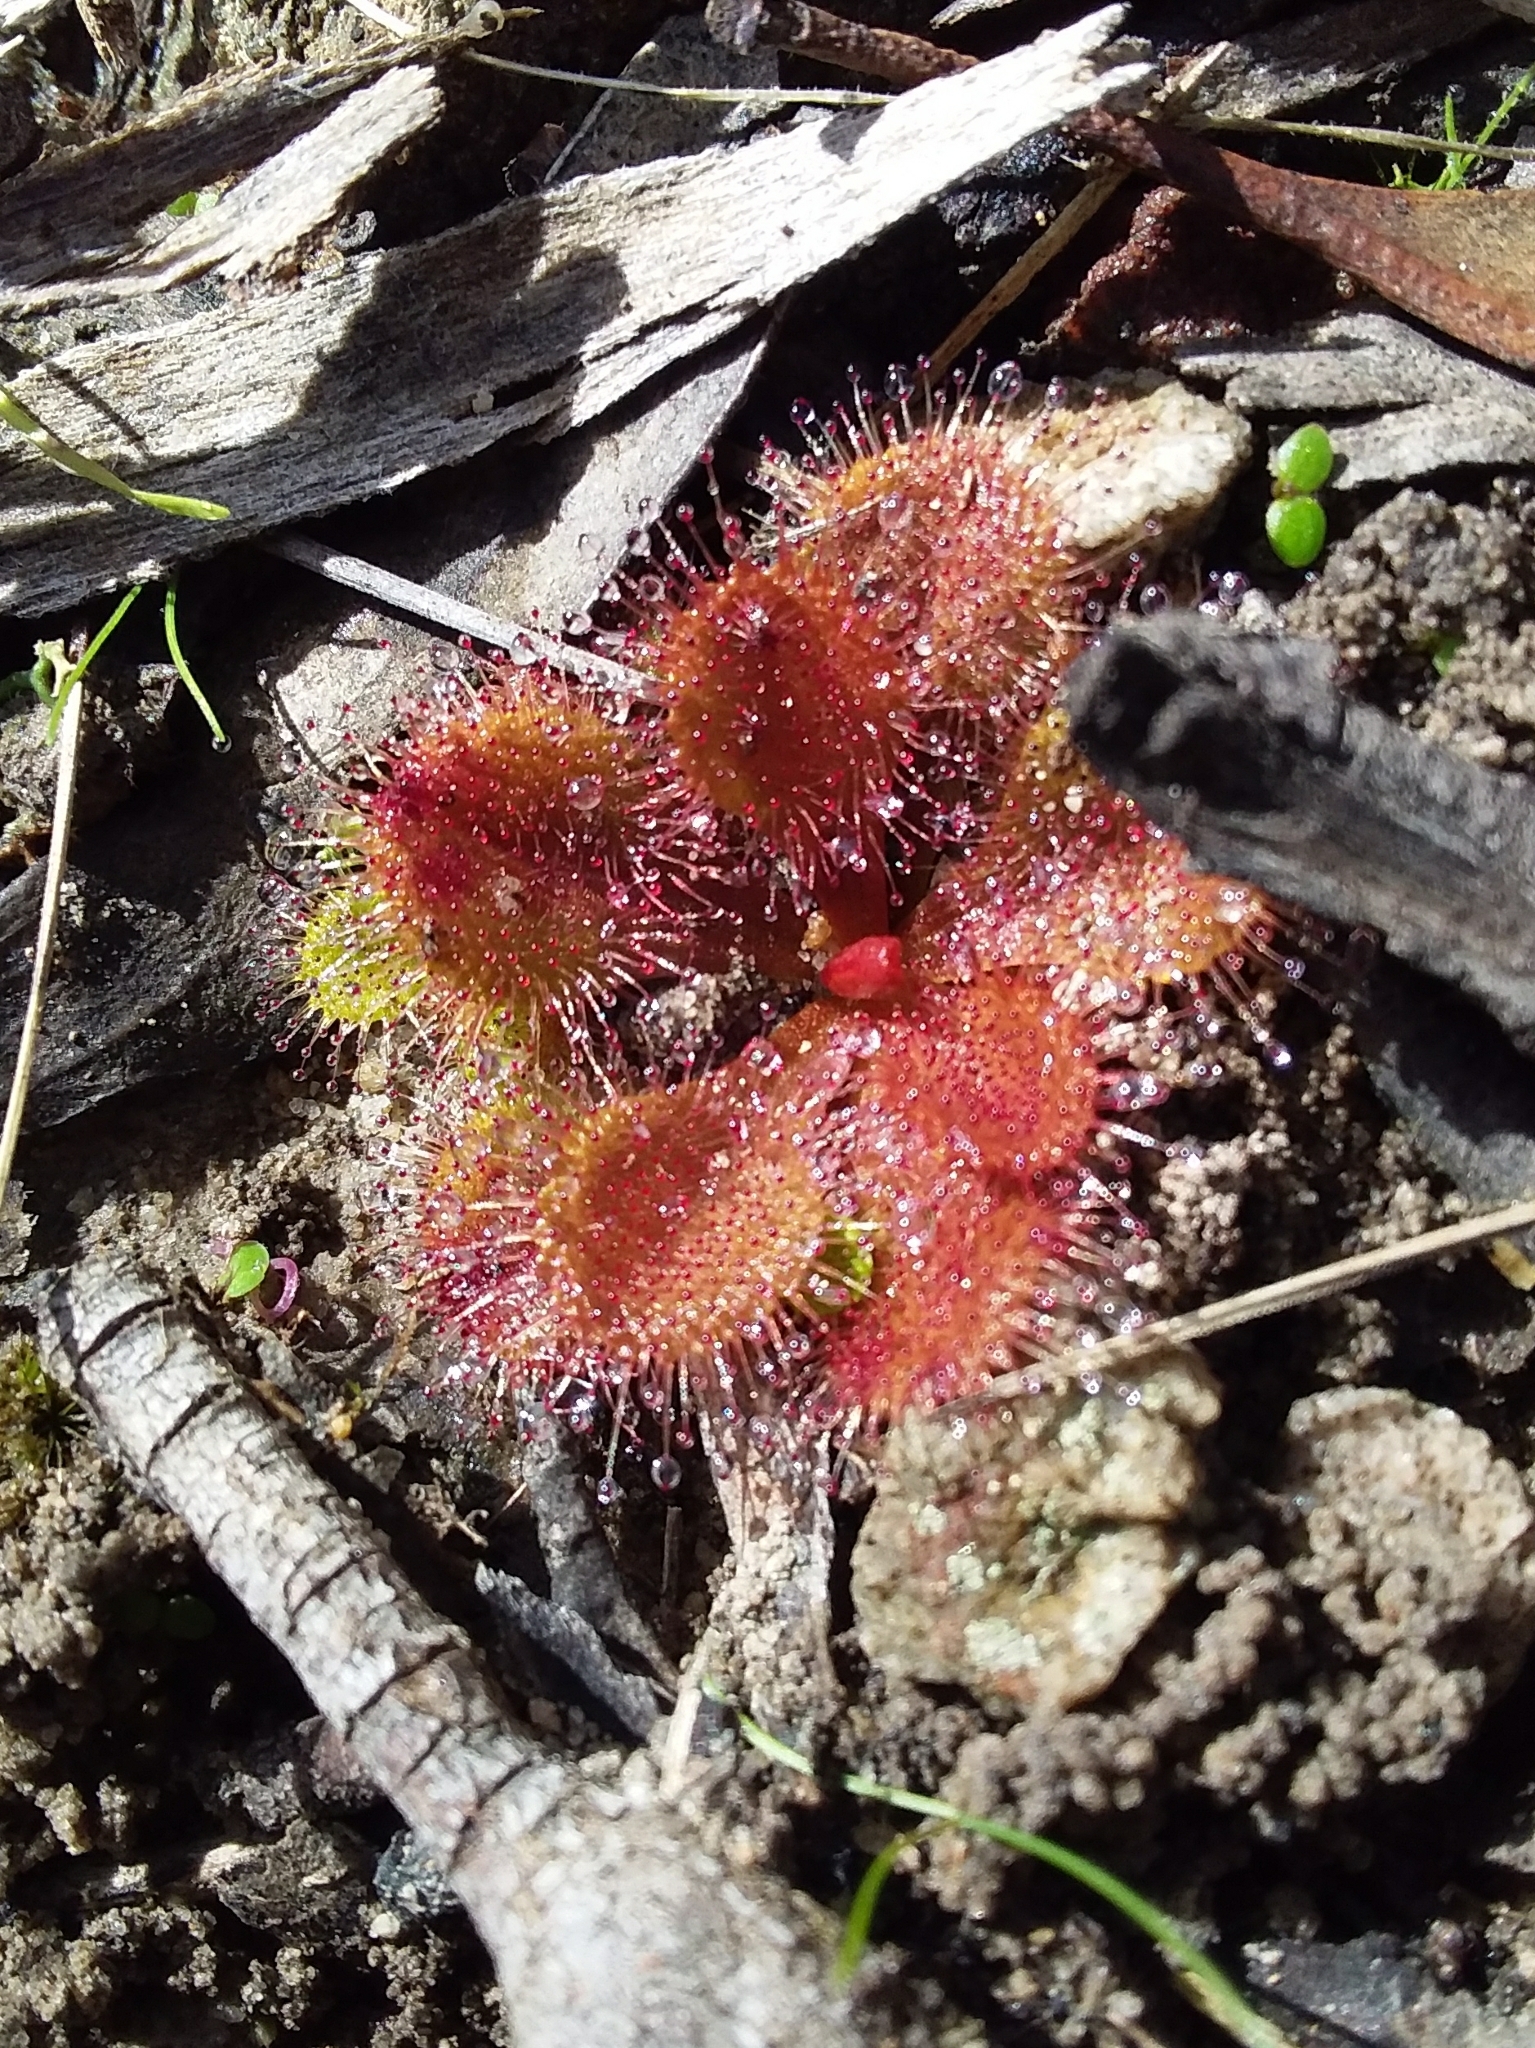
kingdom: Plantae
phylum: Tracheophyta
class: Magnoliopsida
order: Caryophyllales
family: Droseraceae
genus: Drosera
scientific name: Drosera whittakeri
